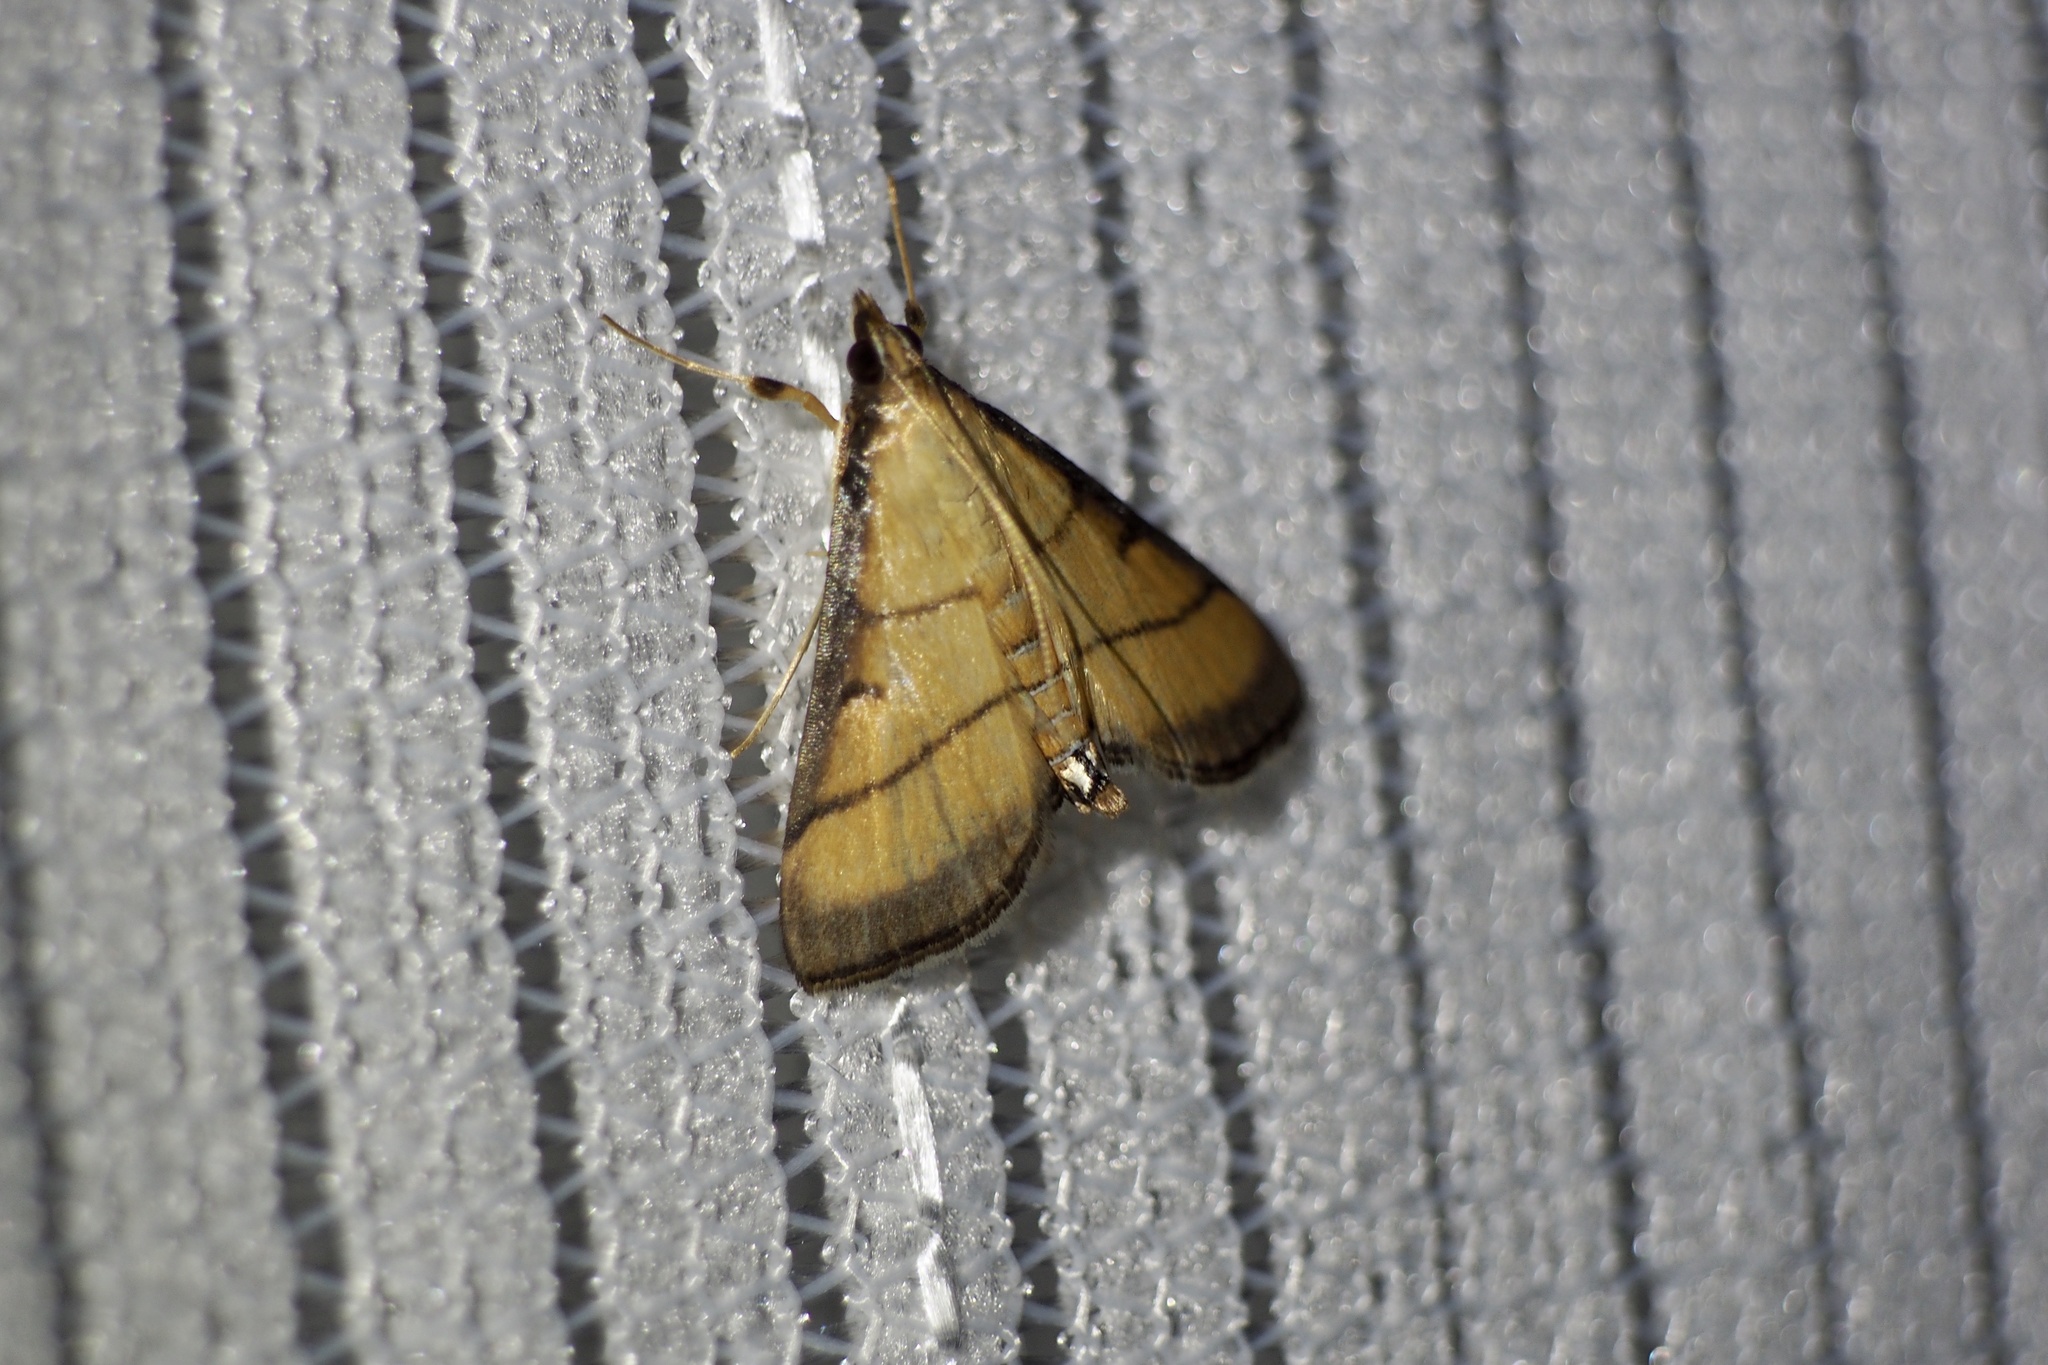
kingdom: Animalia
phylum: Arthropoda
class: Insecta
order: Lepidoptera
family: Crambidae
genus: Cnaphalocrocis
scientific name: Cnaphalocrocis medinalis
